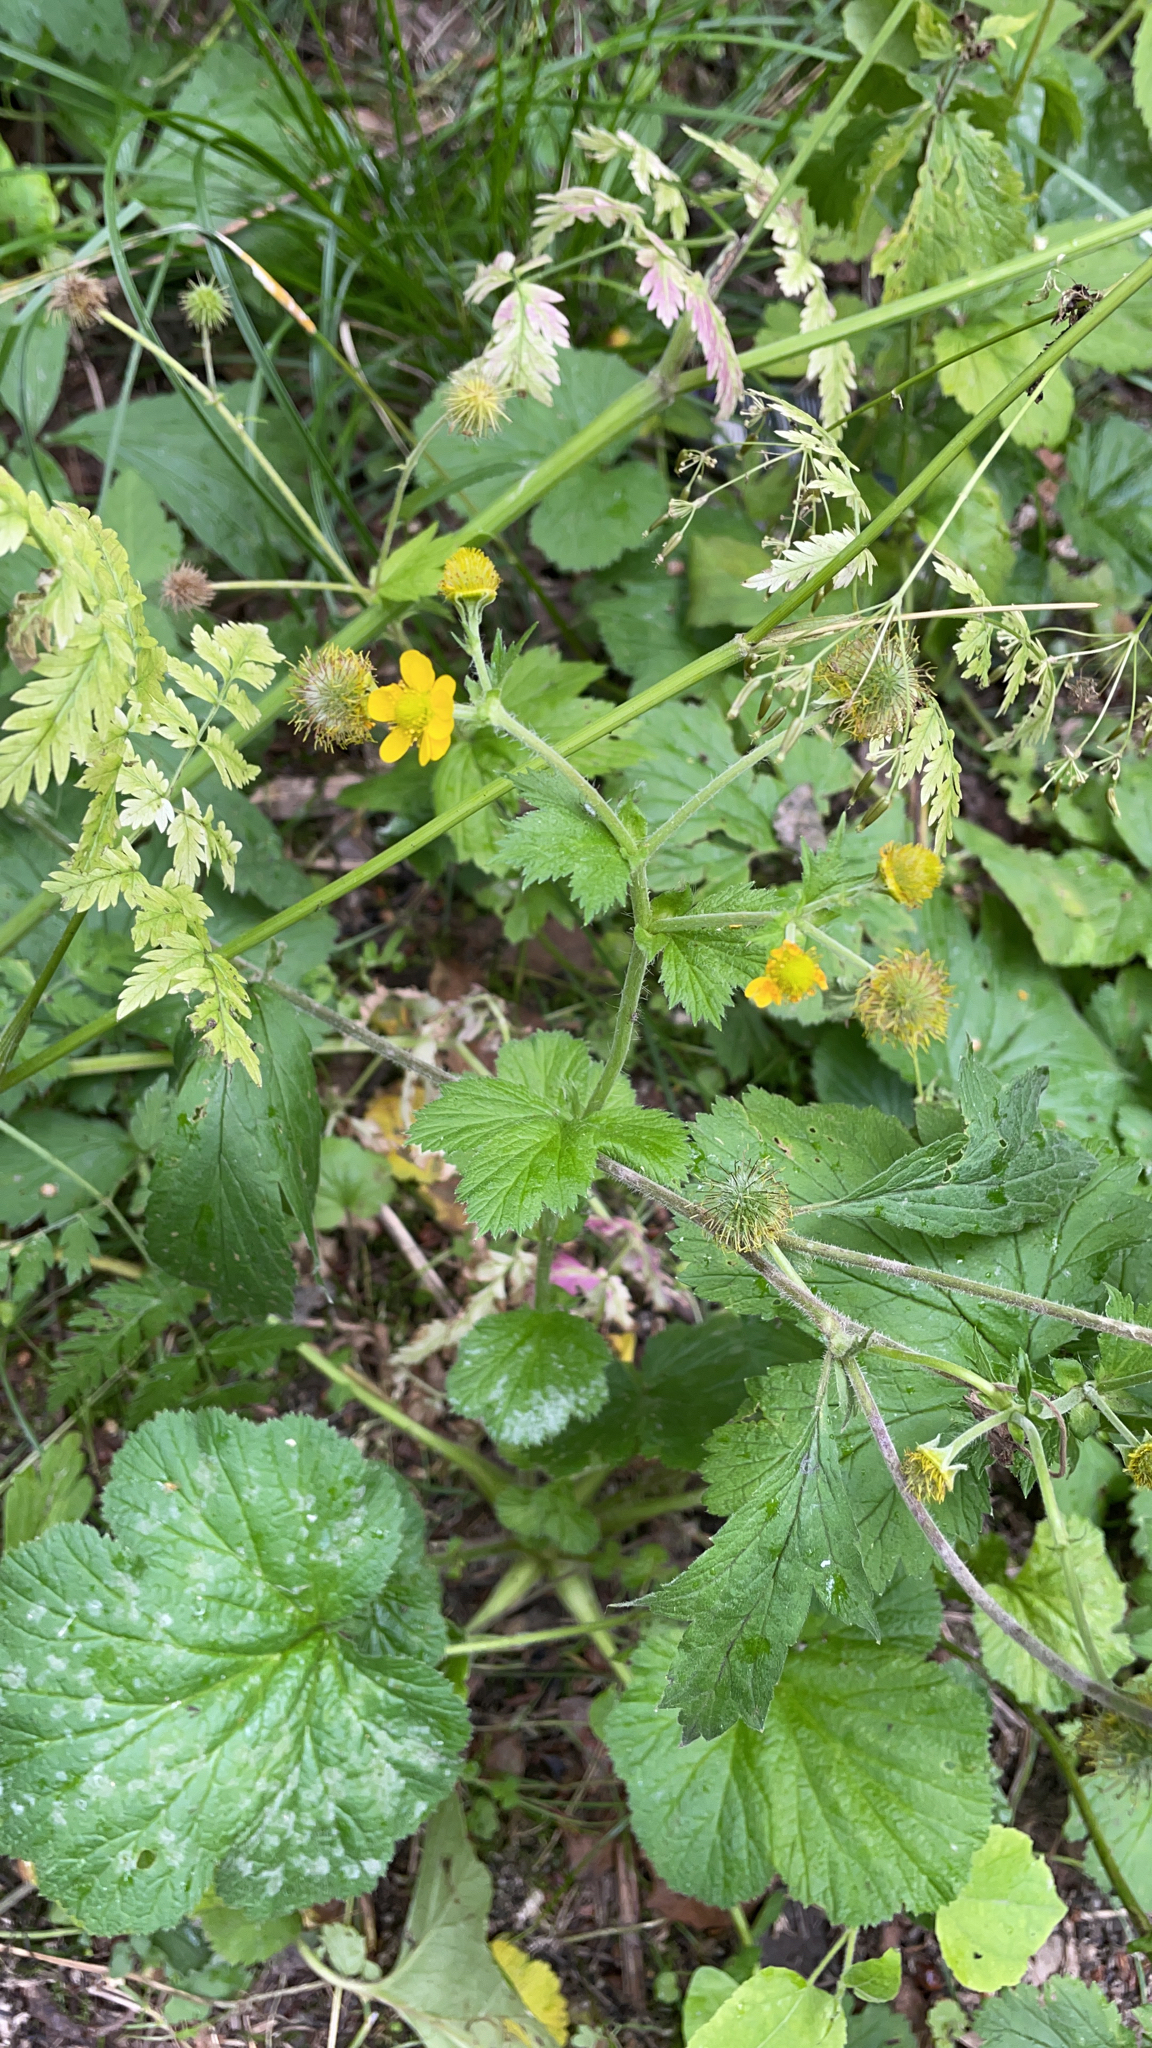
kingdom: Plantae
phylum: Tracheophyta
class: Magnoliopsida
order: Rosales
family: Rosaceae
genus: Geum
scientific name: Geum macrophyllum
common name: Large-leaved avens
